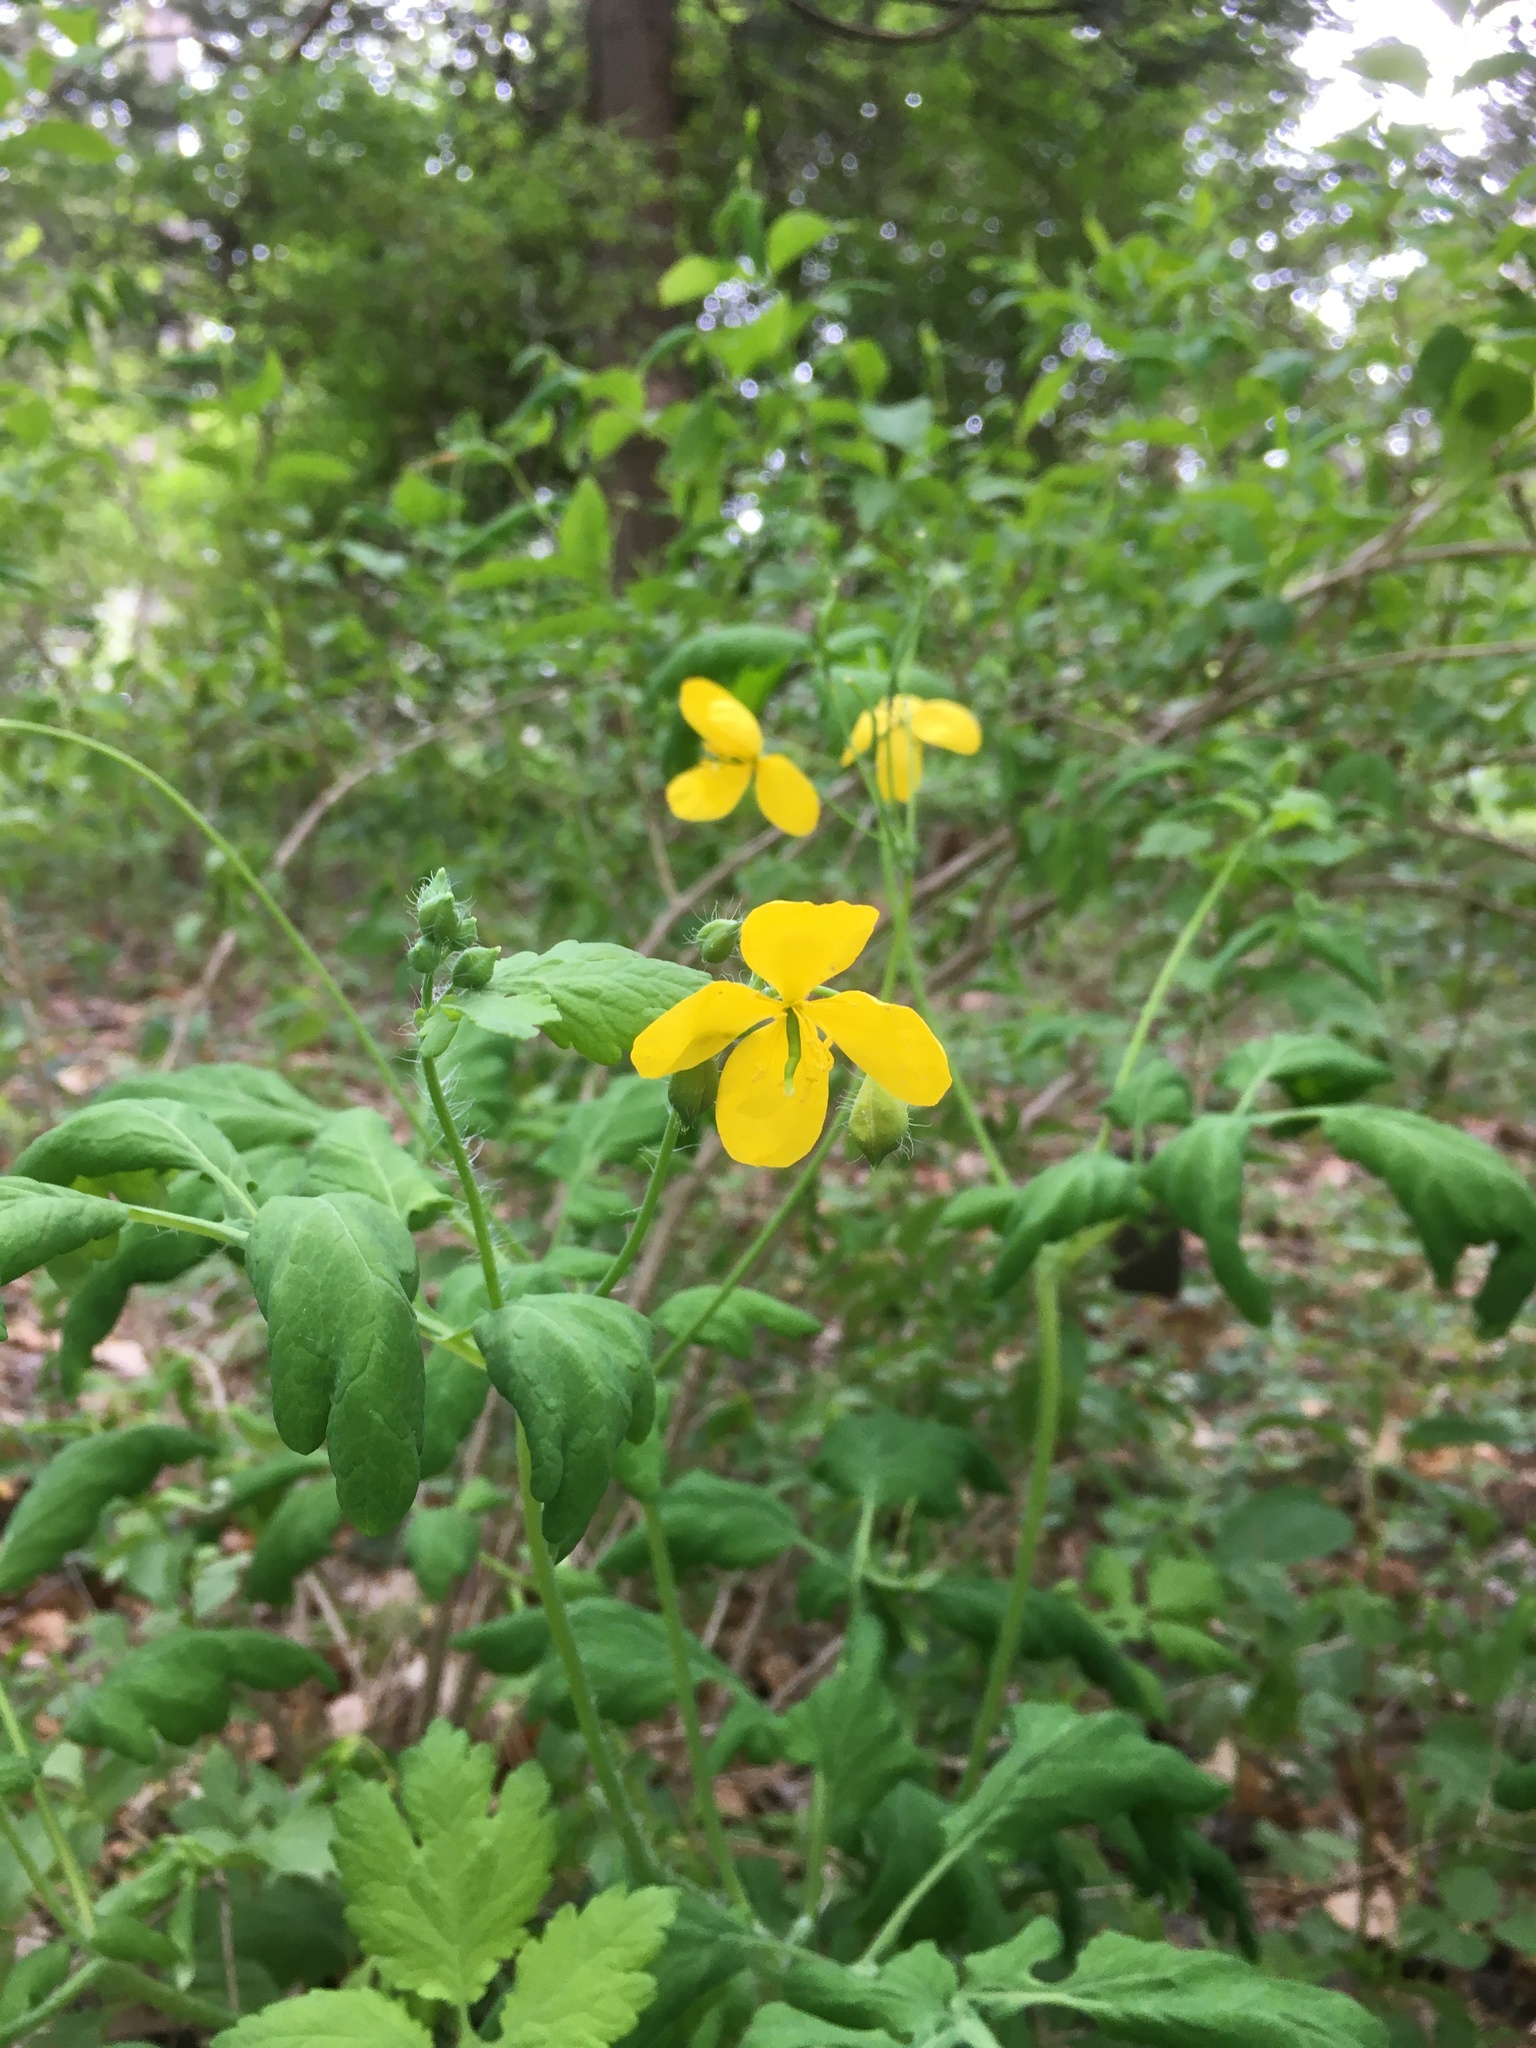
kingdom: Plantae
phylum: Tracheophyta
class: Magnoliopsida
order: Ranunculales
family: Papaveraceae
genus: Chelidonium
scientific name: Chelidonium majus
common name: Greater celandine
